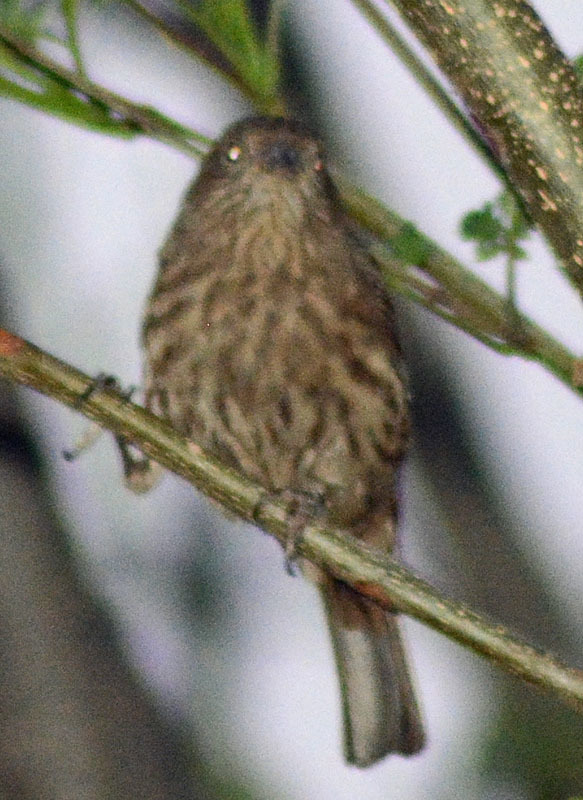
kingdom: Animalia
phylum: Chordata
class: Aves
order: Passeriformes
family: Fringillidae
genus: Haemorhous
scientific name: Haemorhous mexicanus
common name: House finch
